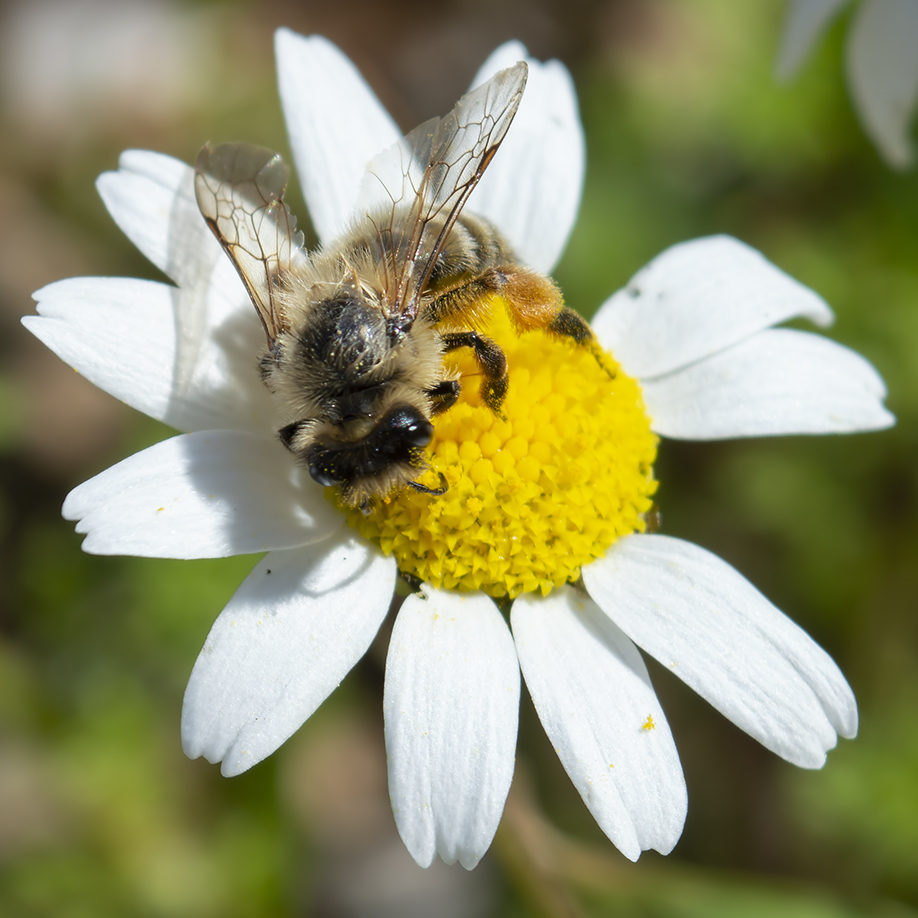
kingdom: Animalia
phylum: Arthropoda
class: Insecta
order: Hymenoptera
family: Apidae
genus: Apis
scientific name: Apis mellifera
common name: Honey bee
